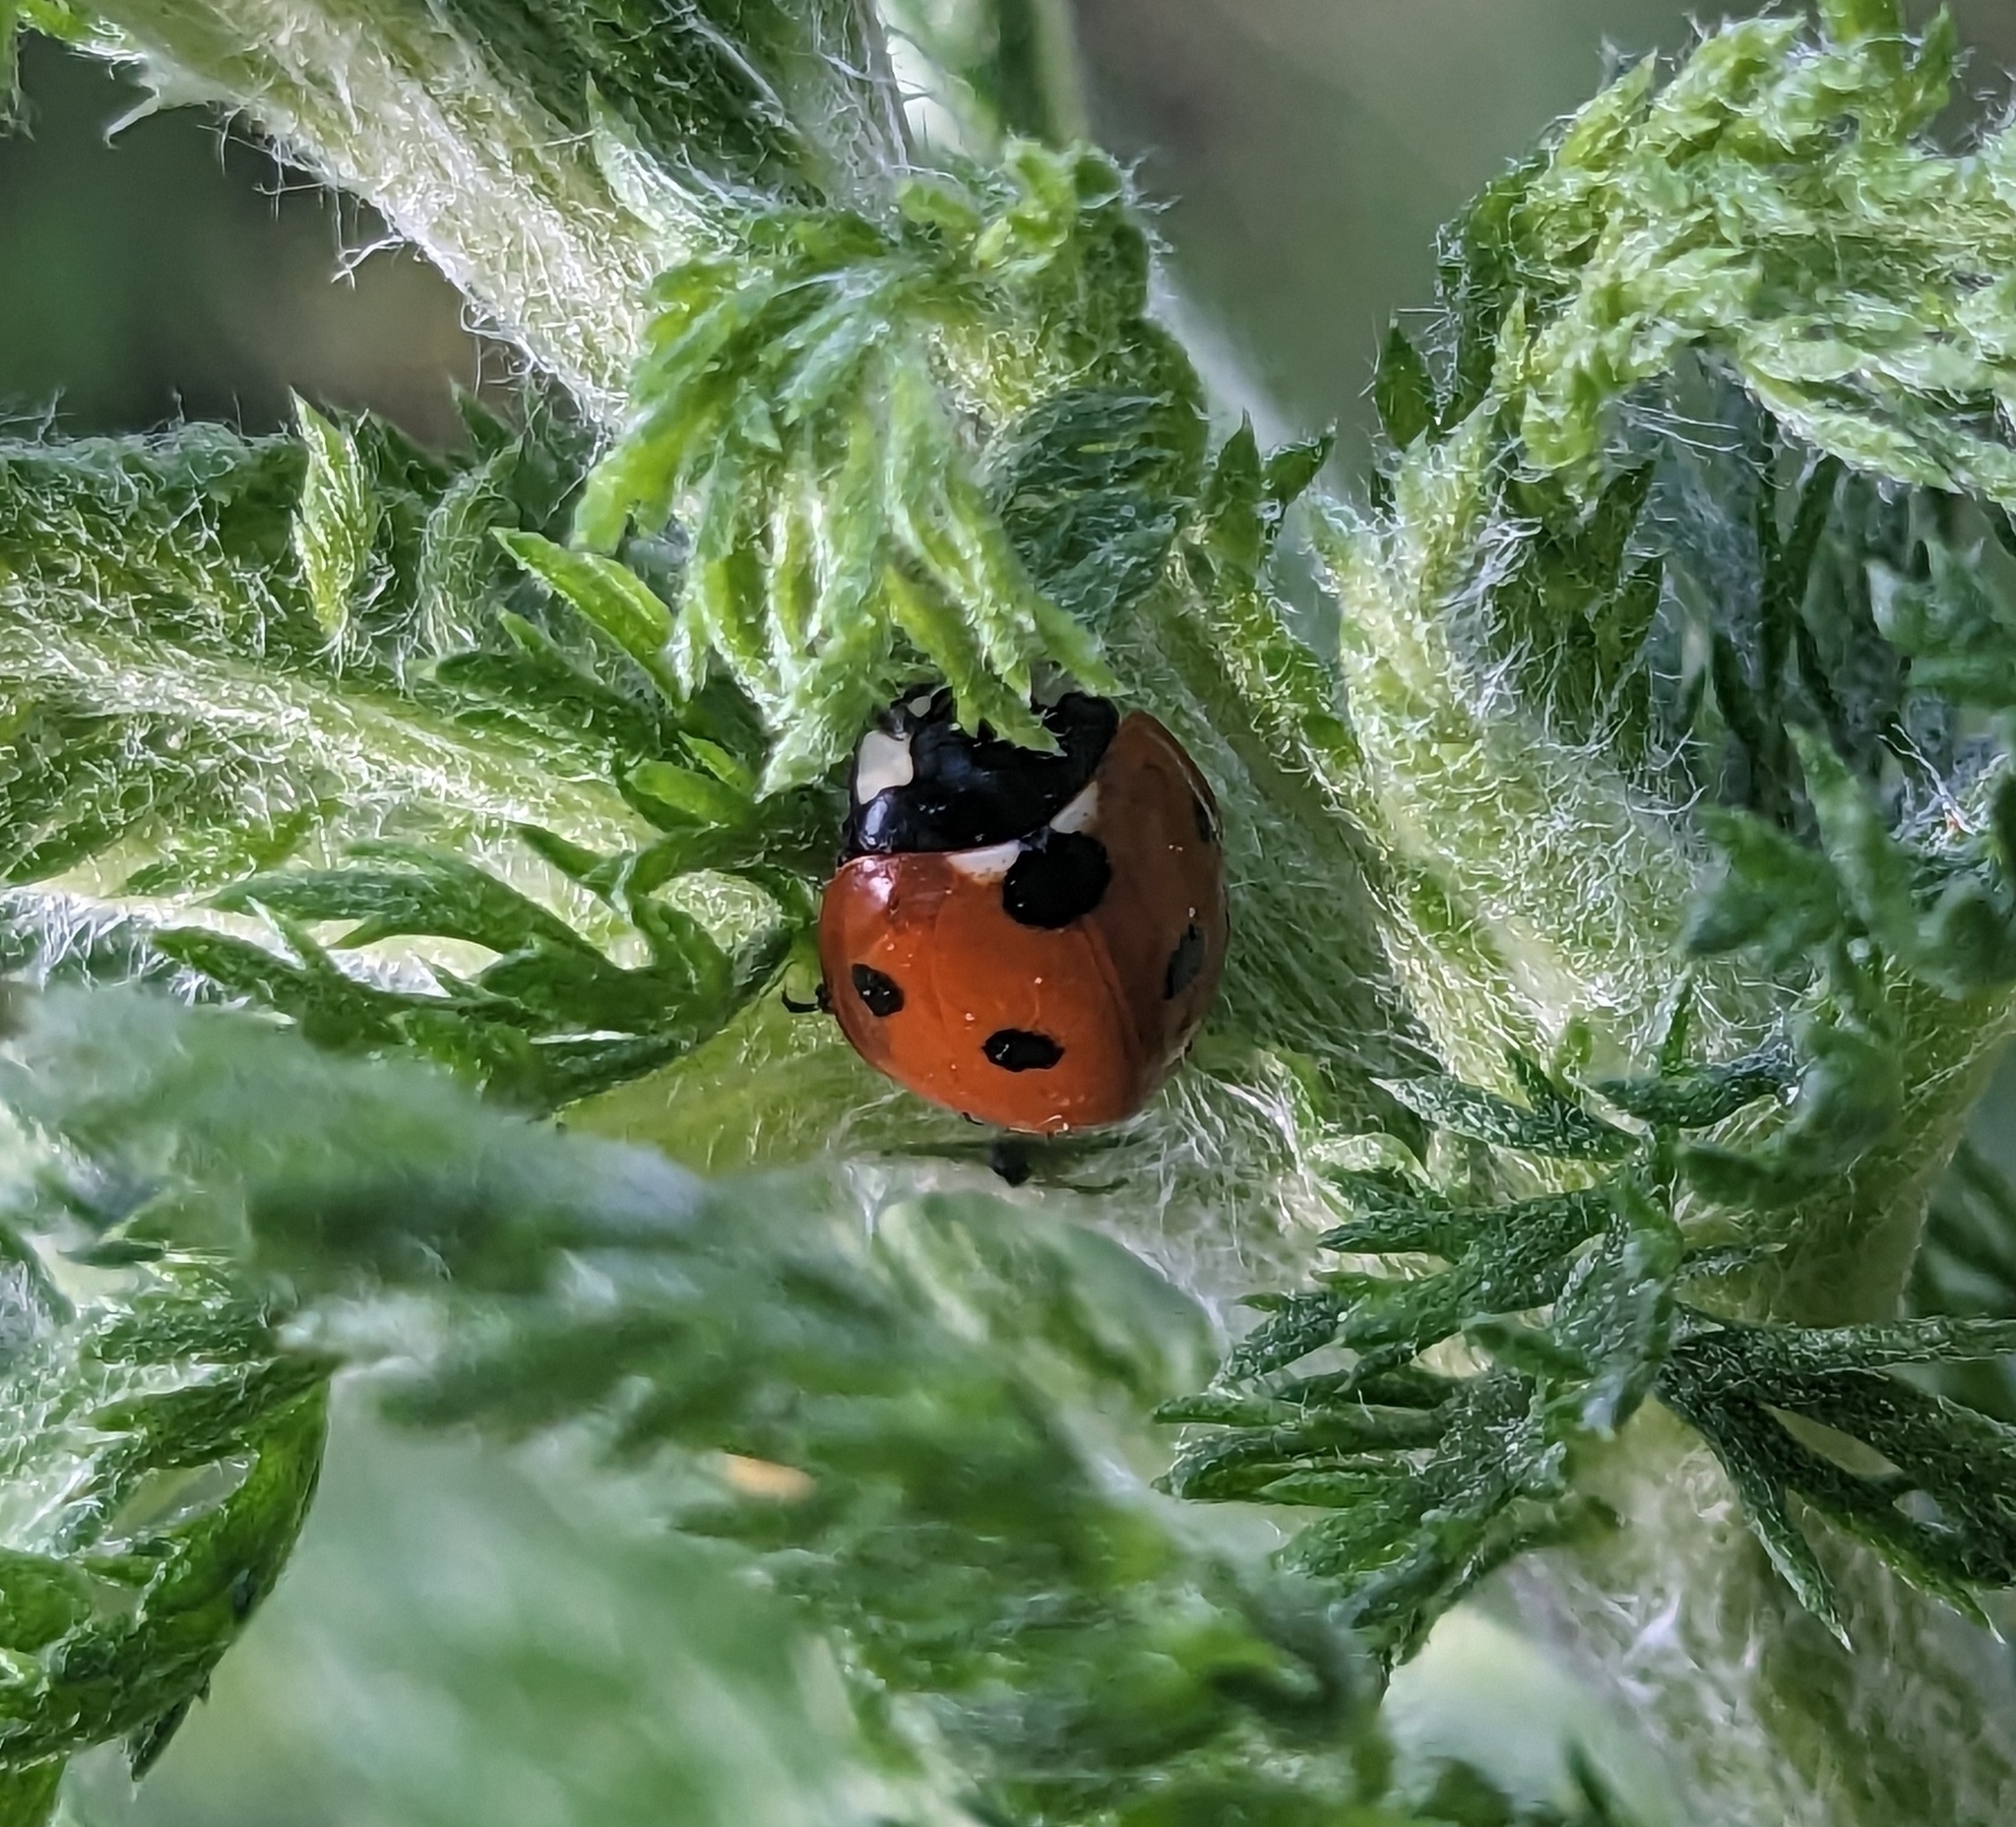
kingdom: Animalia
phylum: Arthropoda
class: Insecta
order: Coleoptera
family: Coccinellidae
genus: Coccinella
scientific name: Coccinella septempunctata
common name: Sevenspotted lady beetle
